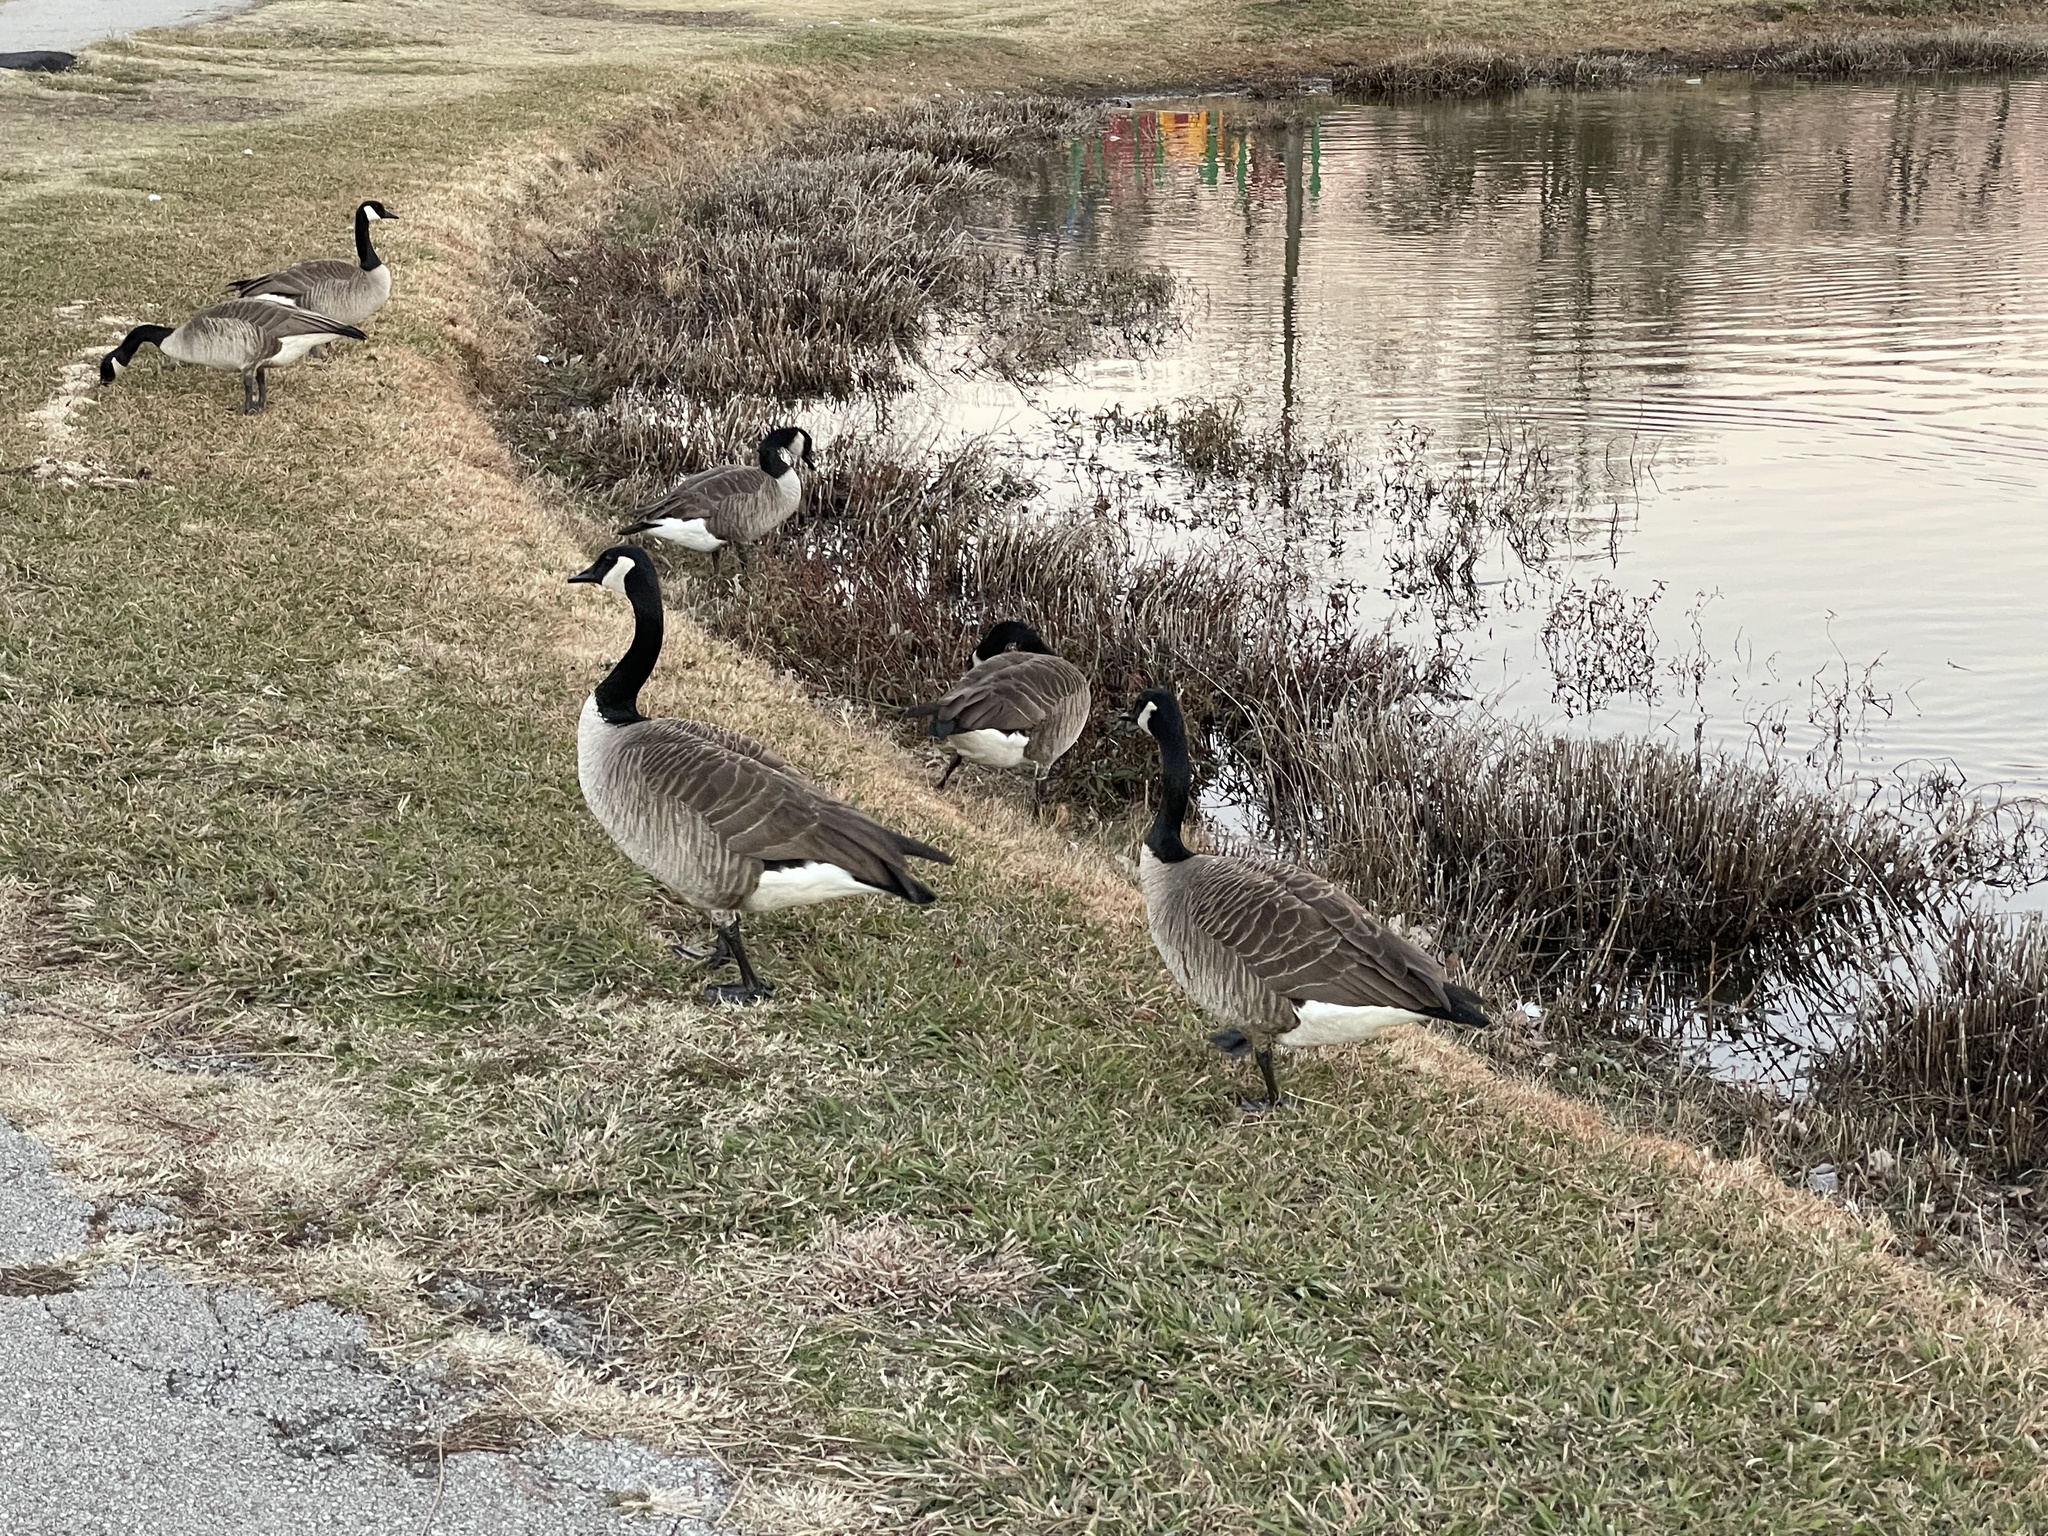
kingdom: Animalia
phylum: Chordata
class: Aves
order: Anseriformes
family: Anatidae
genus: Branta
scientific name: Branta canadensis
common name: Canada goose
